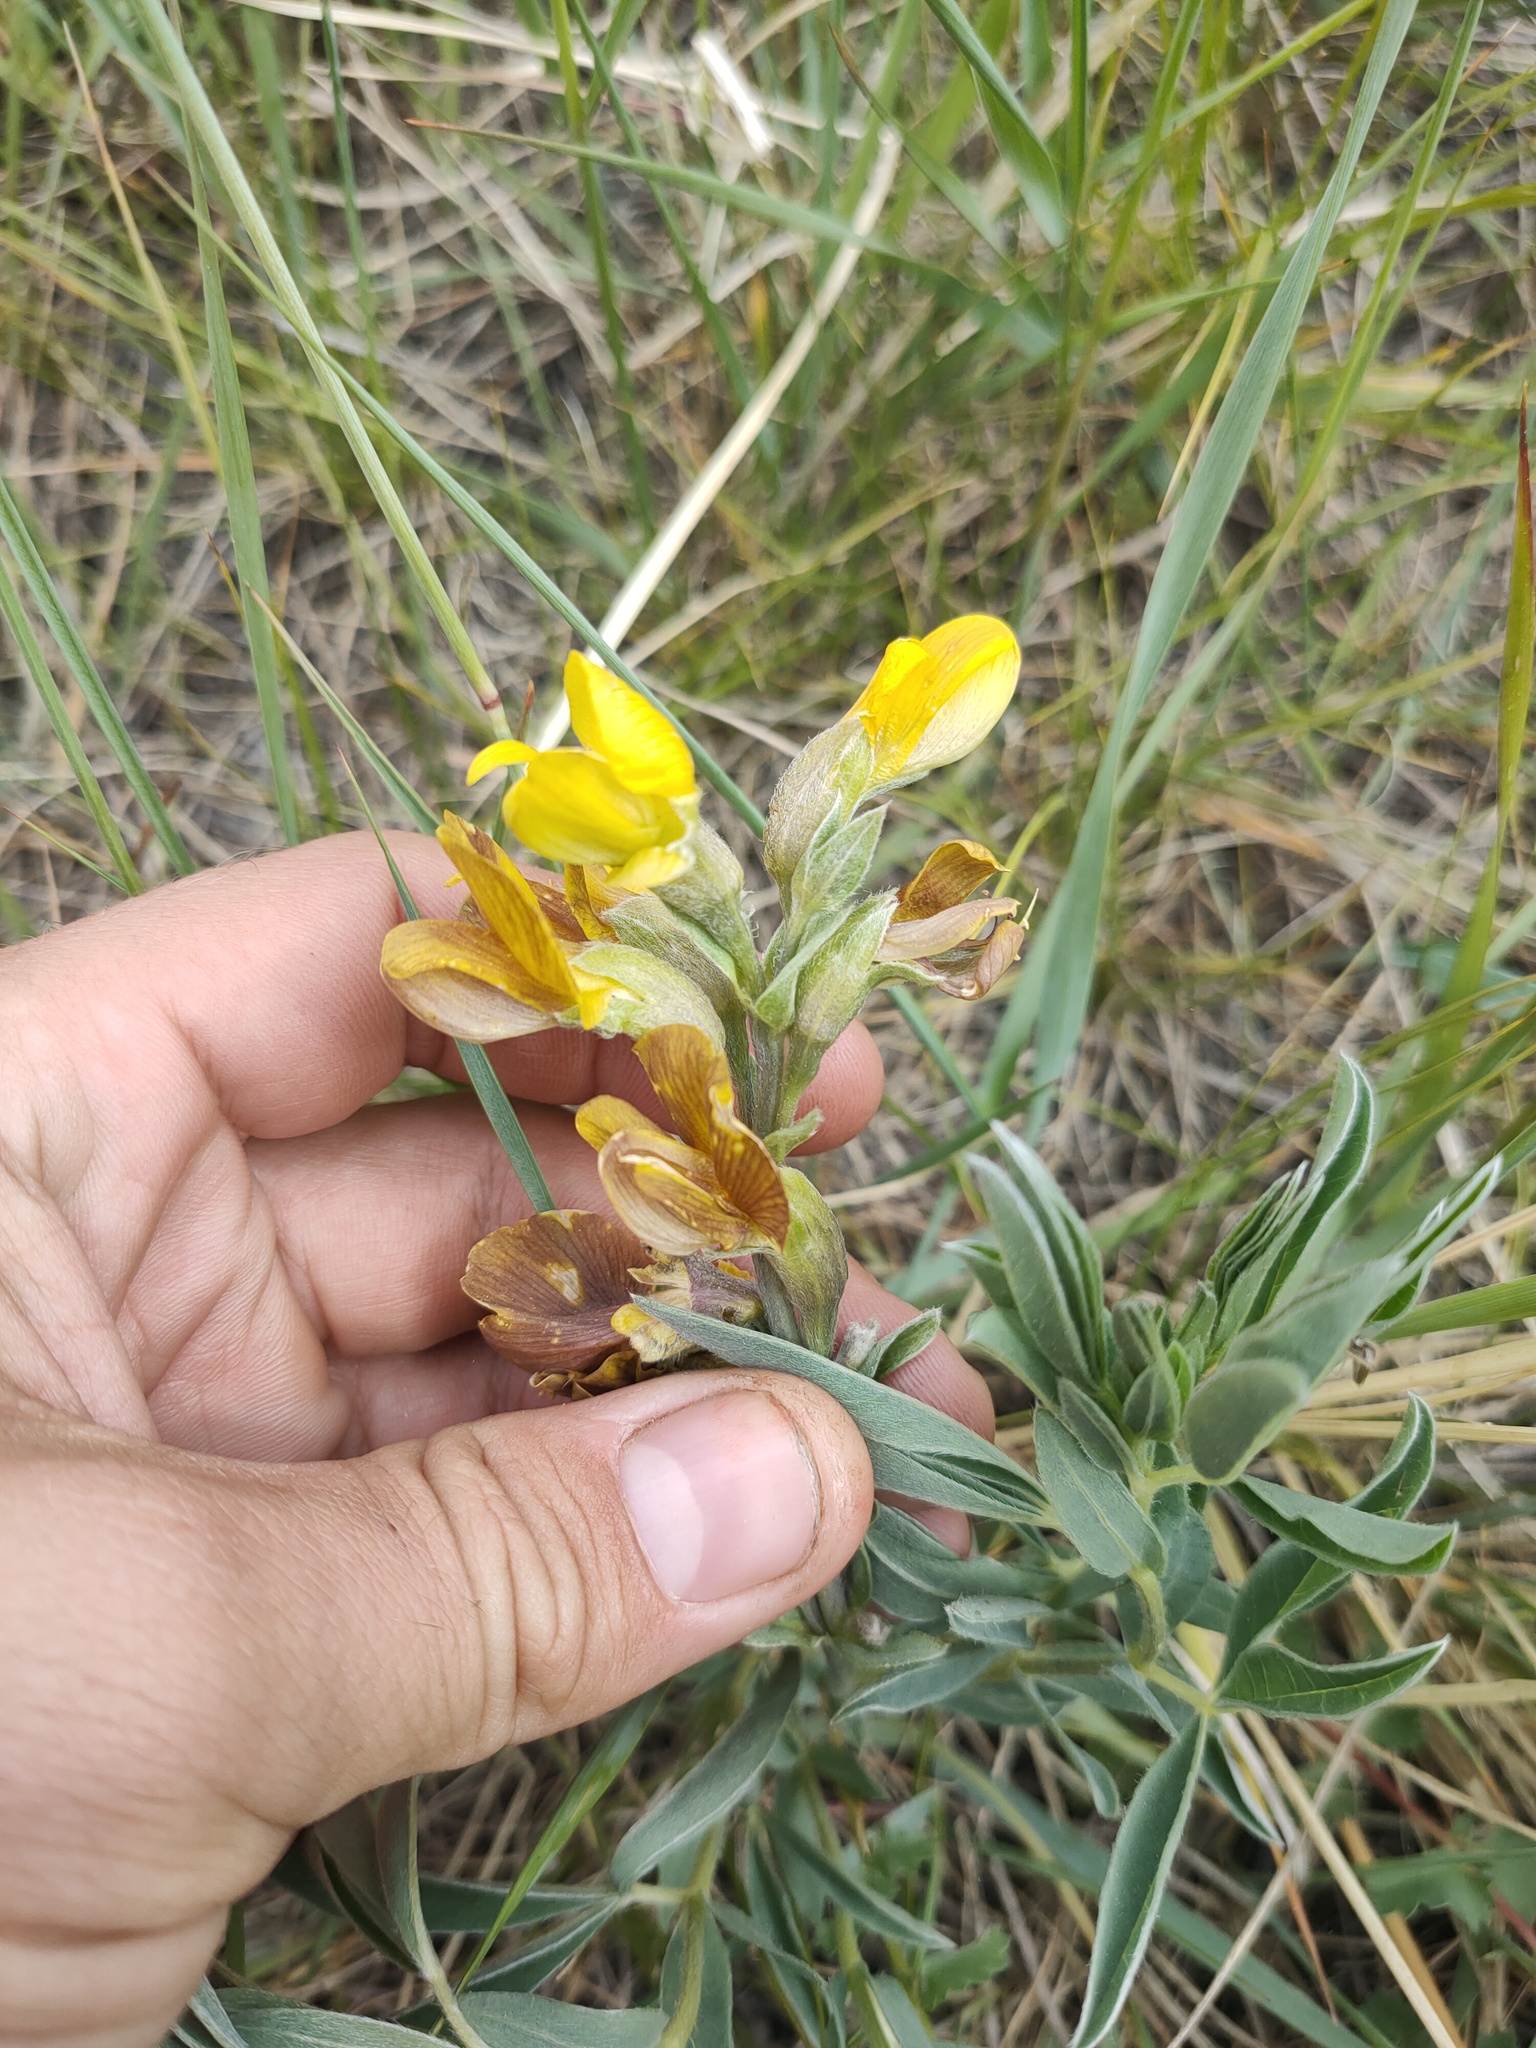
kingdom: Plantae
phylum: Tracheophyta
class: Magnoliopsida
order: Fabales
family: Fabaceae
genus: Thermopsis
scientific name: Thermopsis lanceolata
